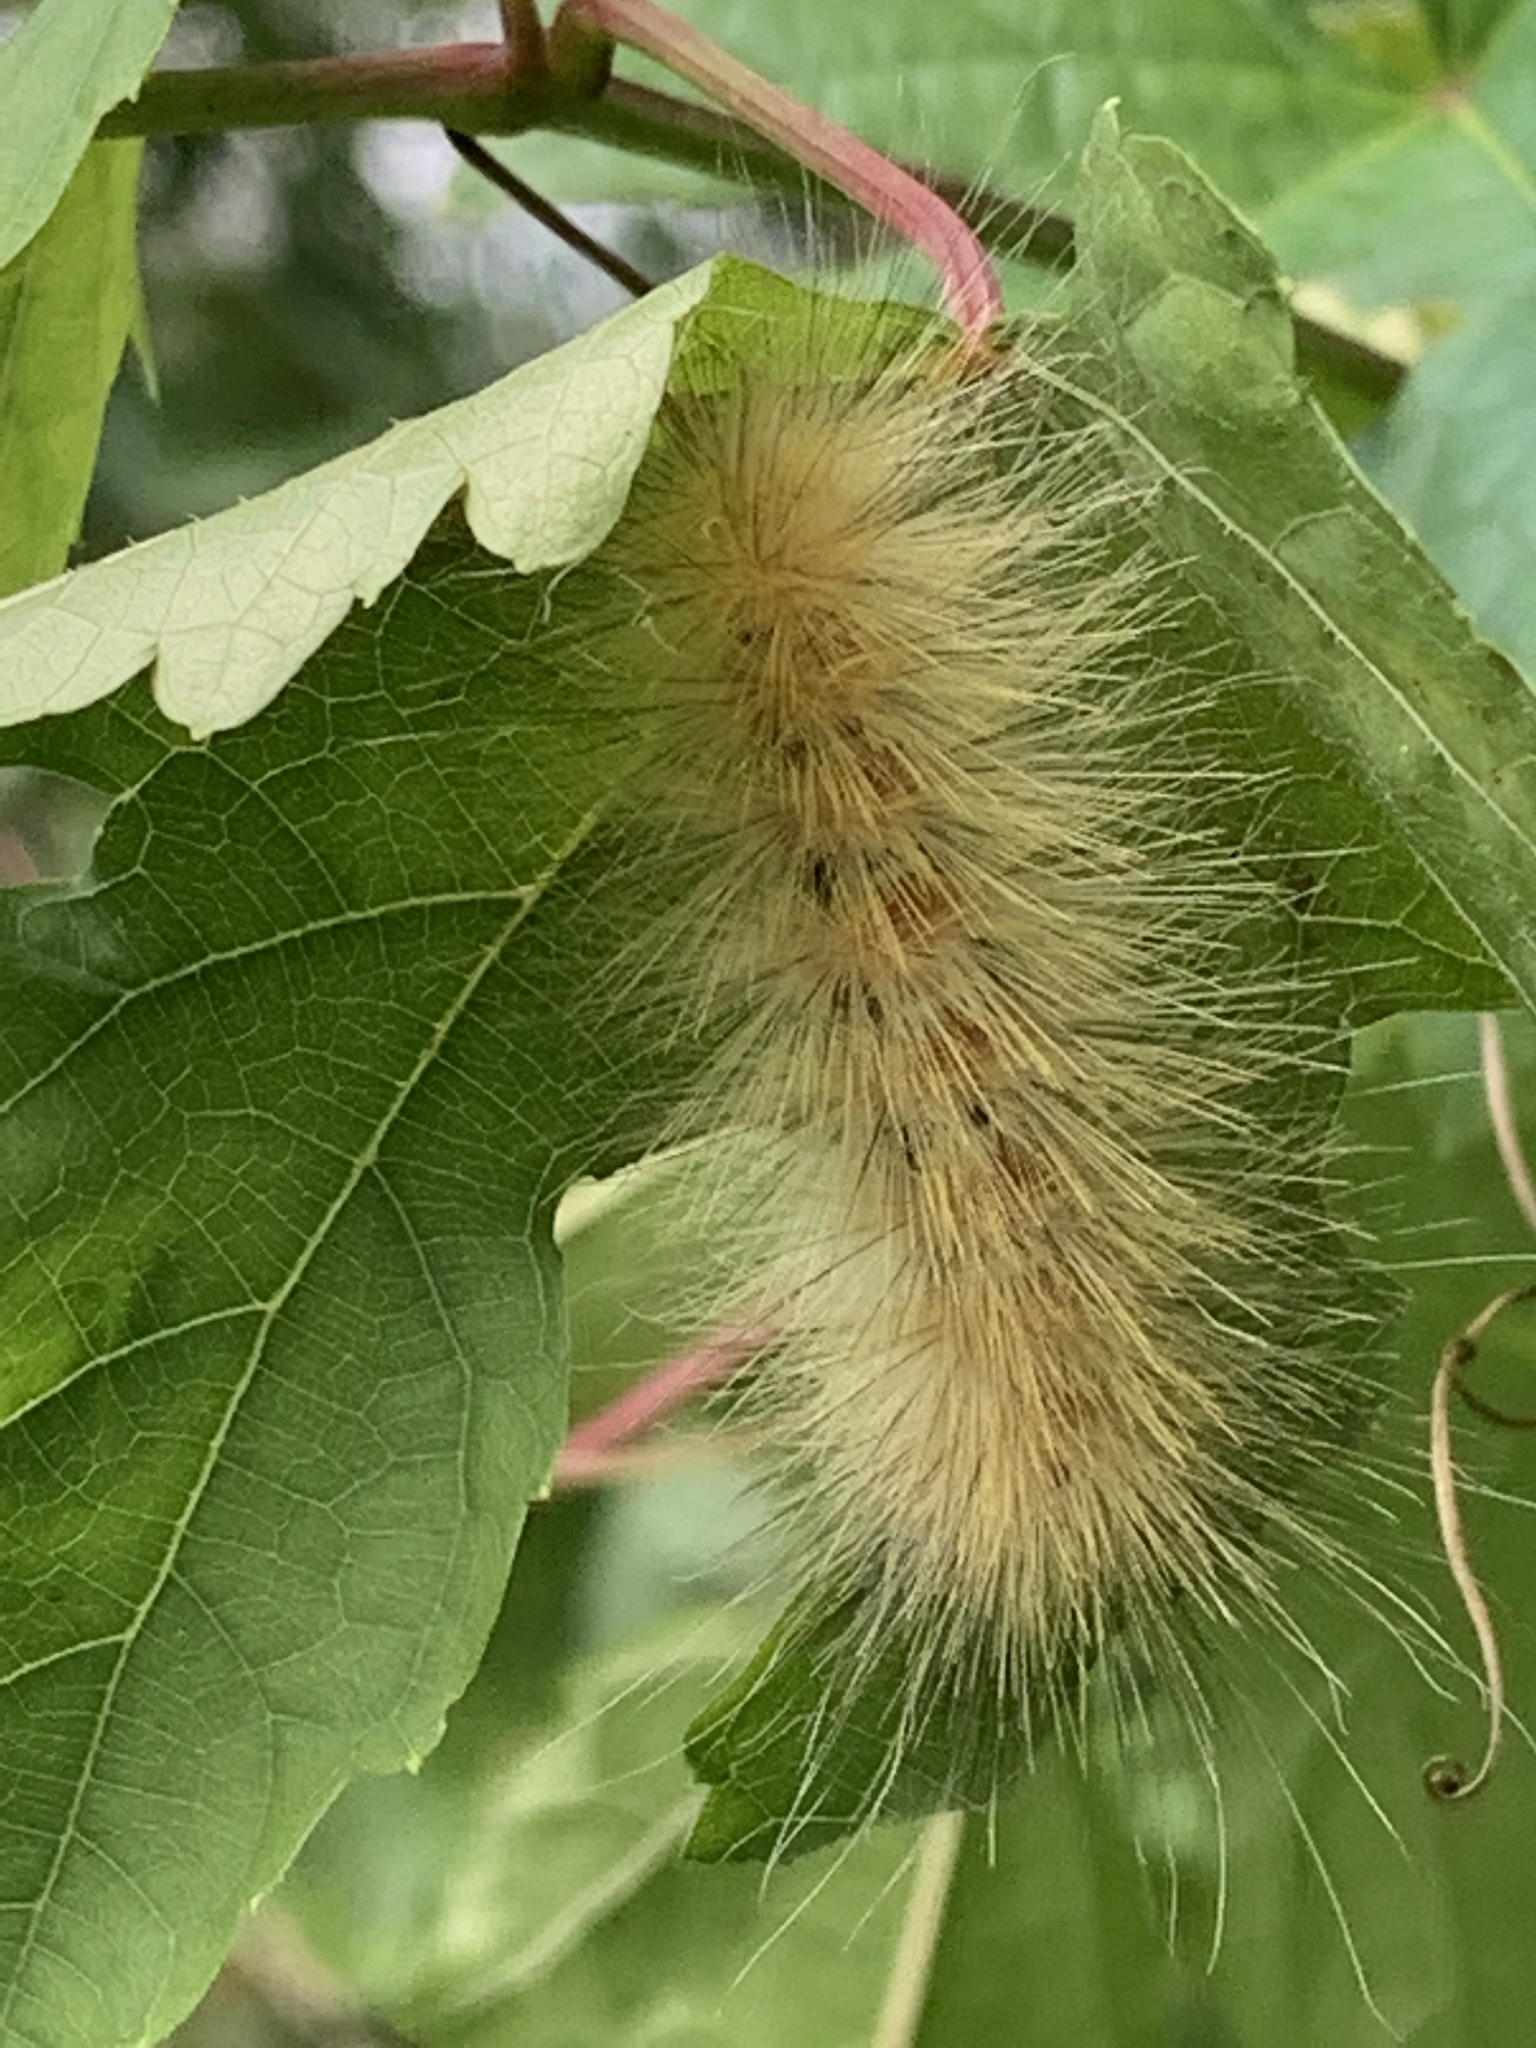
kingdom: Animalia
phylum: Arthropoda
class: Insecta
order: Lepidoptera
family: Erebidae
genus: Spilosoma
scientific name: Spilosoma virginica
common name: Virginia tiger moth
